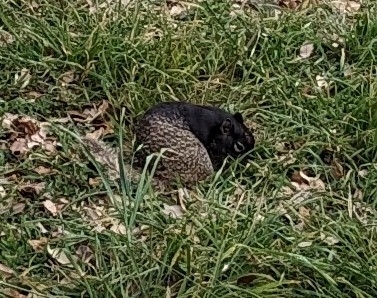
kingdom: Animalia
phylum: Chordata
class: Mammalia
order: Rodentia
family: Sciuridae
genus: Otospermophilus
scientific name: Otospermophilus variegatus
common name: Rock squirrel
